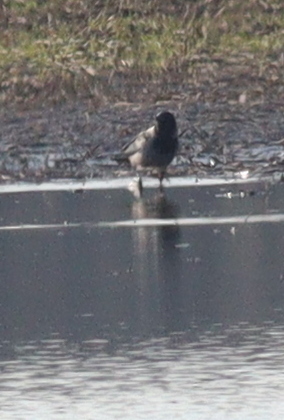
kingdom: Animalia
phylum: Chordata
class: Aves
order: Passeriformes
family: Corvidae
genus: Corvus
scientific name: Corvus cornix
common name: Hooded crow
